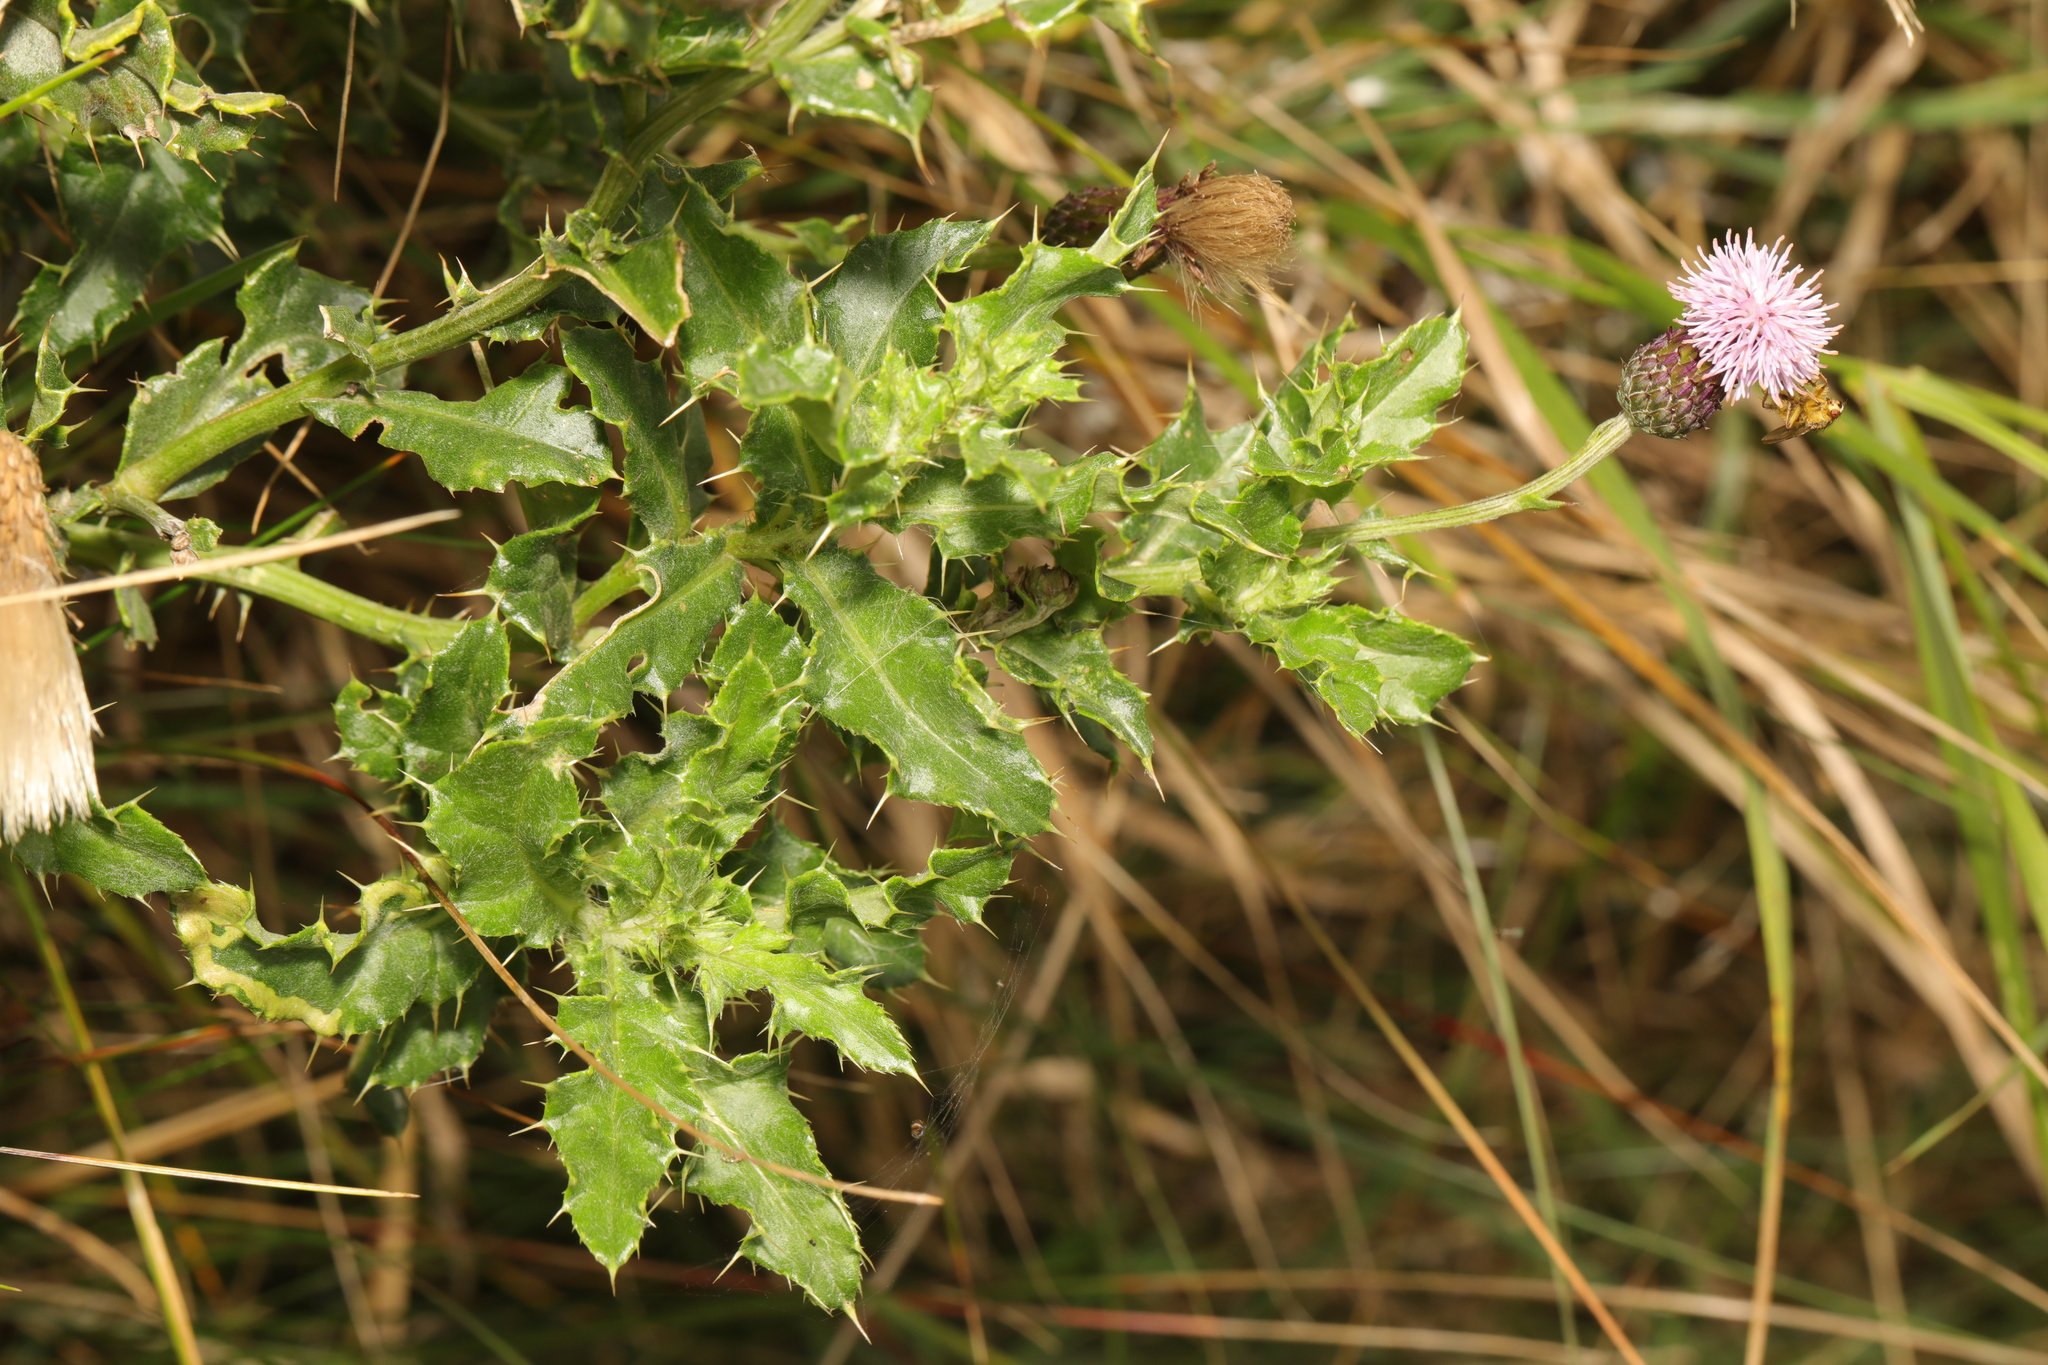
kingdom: Plantae
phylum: Tracheophyta
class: Magnoliopsida
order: Asterales
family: Asteraceae
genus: Cirsium
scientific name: Cirsium arvense
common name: Creeping thistle
